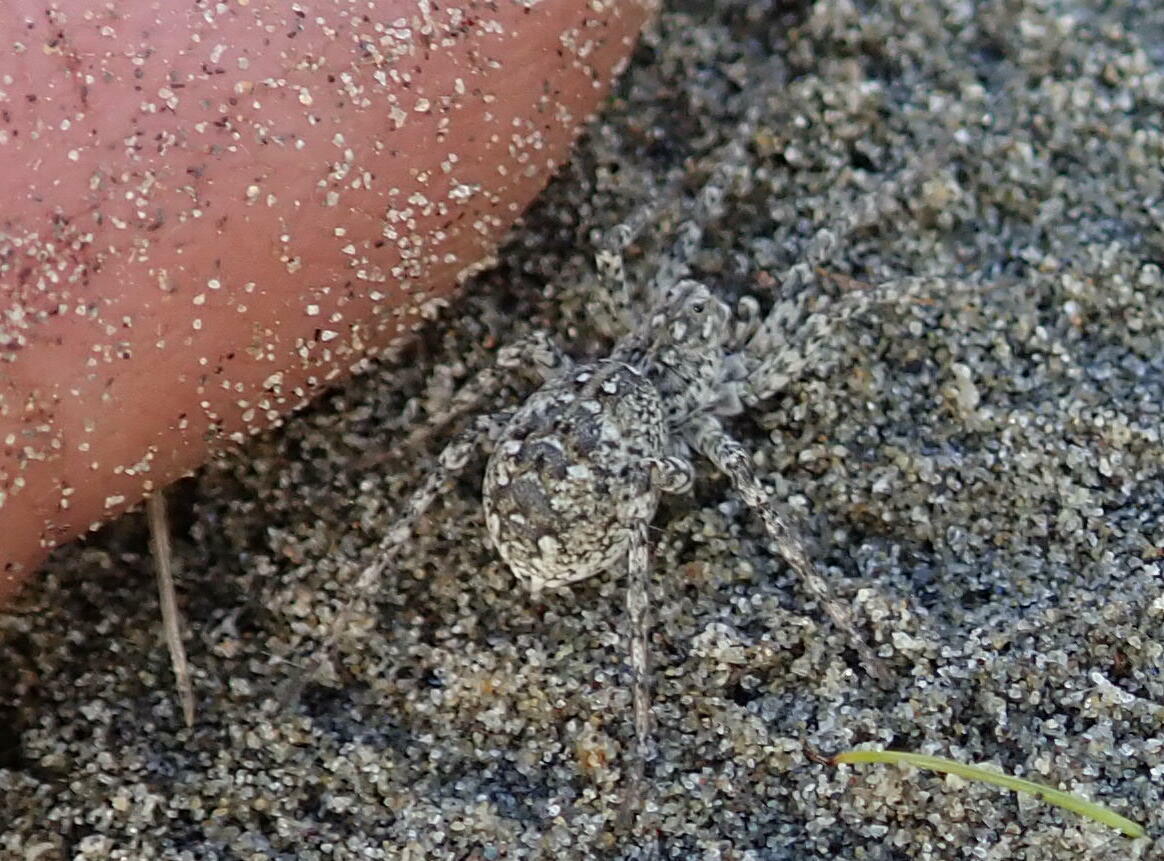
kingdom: Animalia
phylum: Arthropoda
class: Arachnida
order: Araneae
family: Lycosidae
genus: Anoteropsis
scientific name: Anoteropsis litoralis
